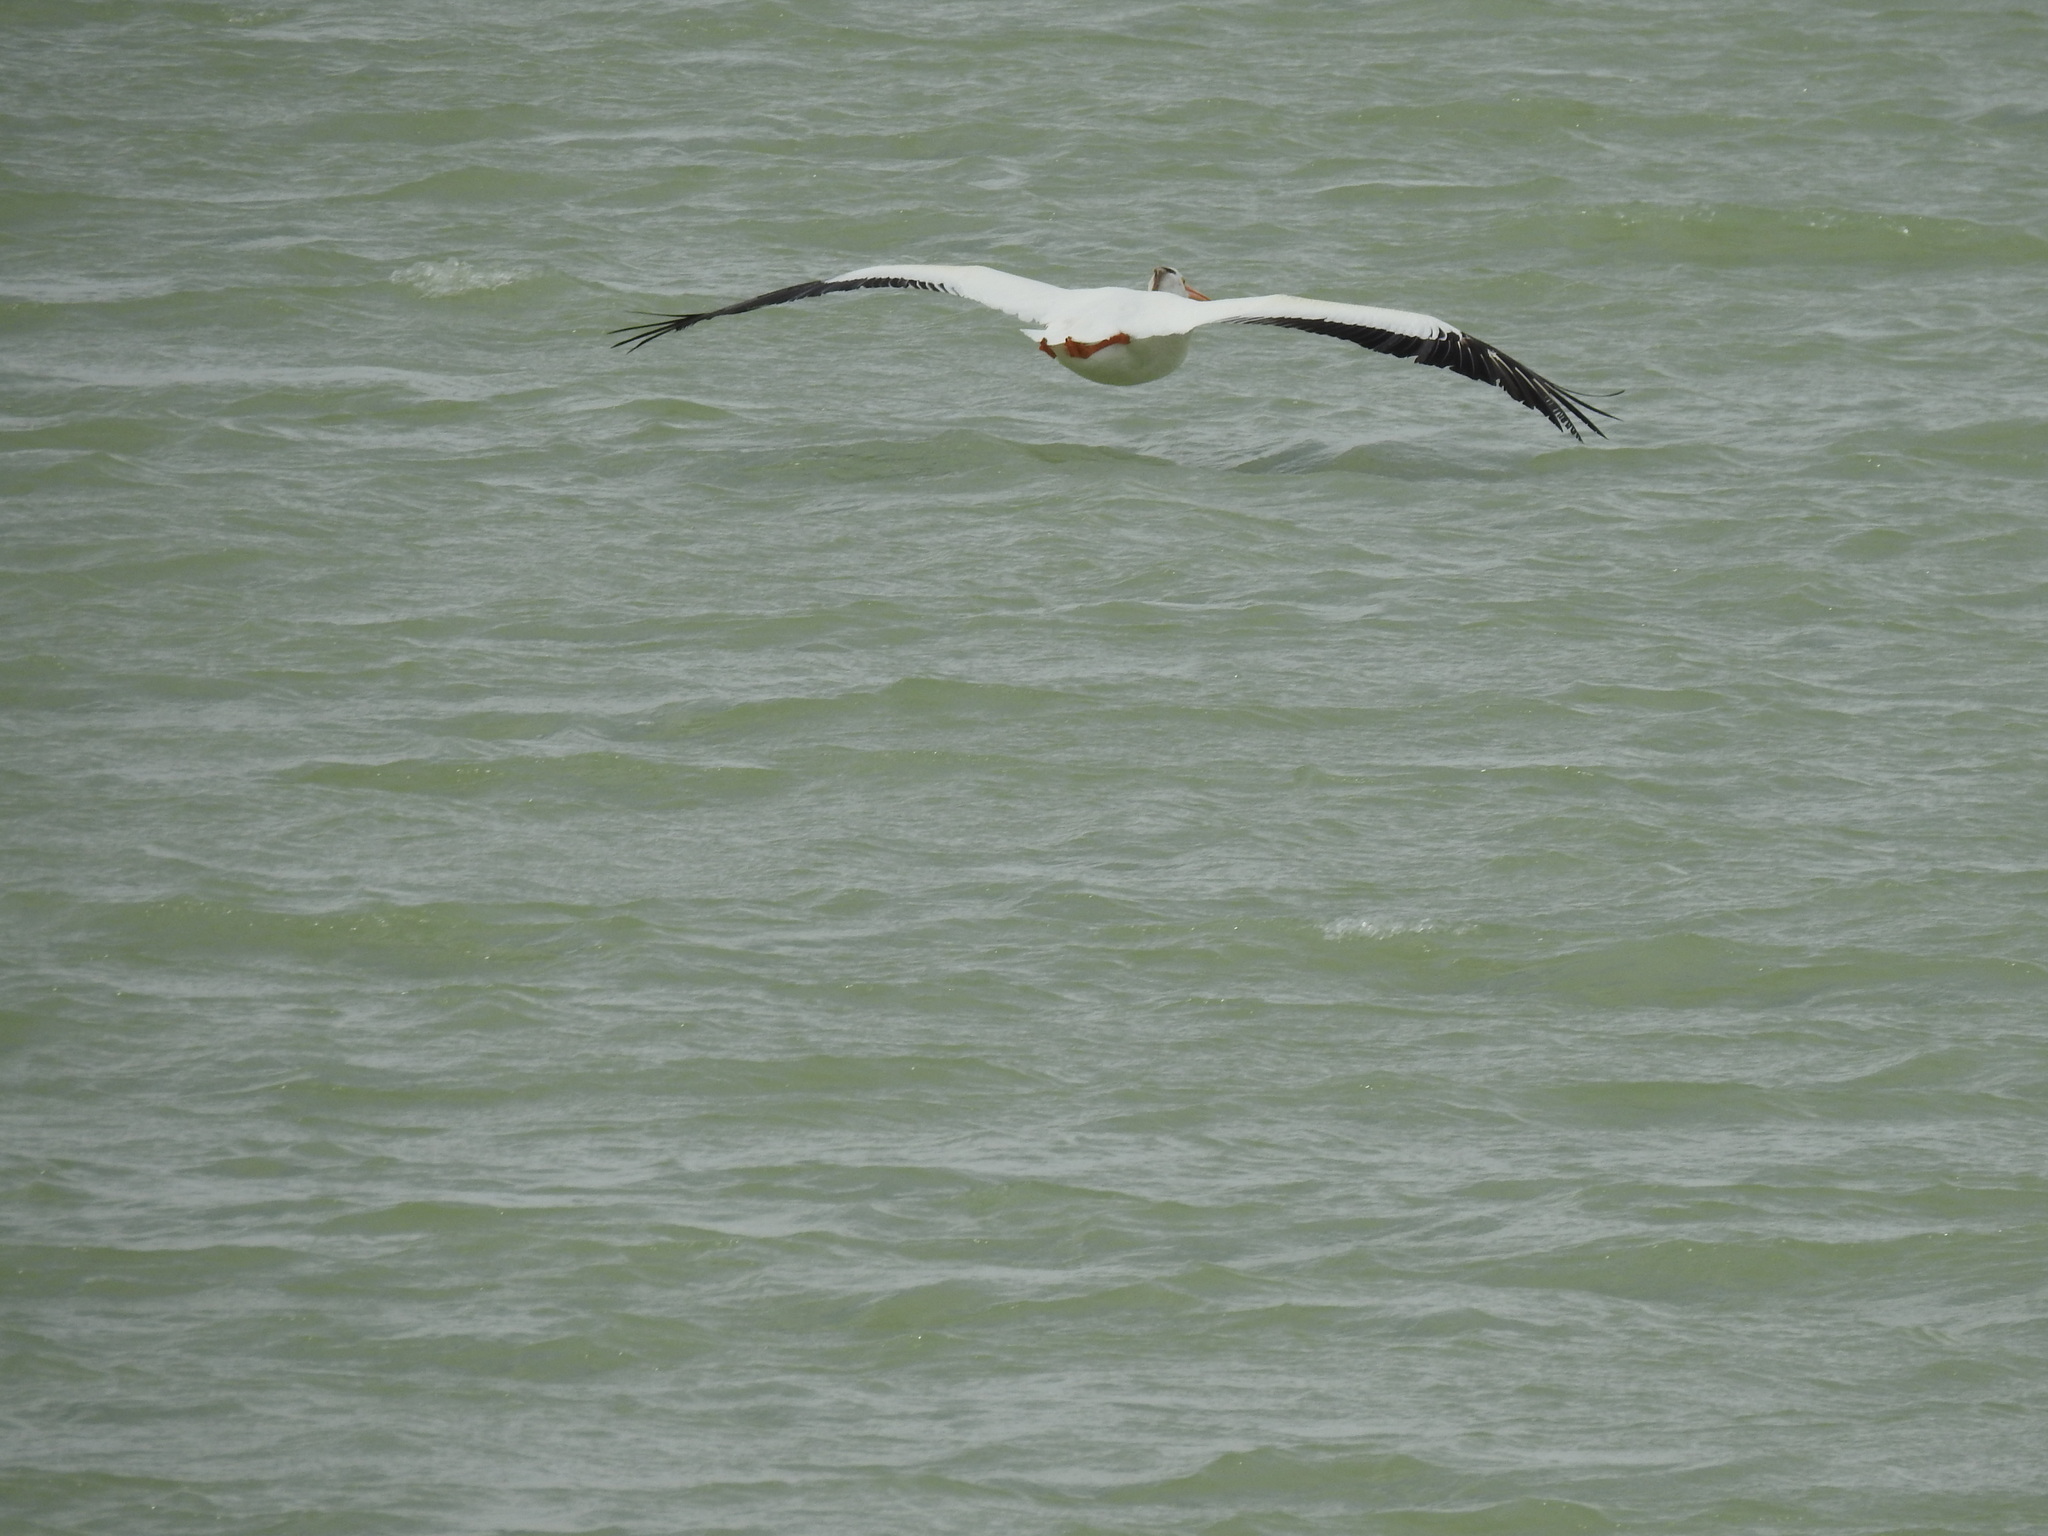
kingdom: Animalia
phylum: Chordata
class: Aves
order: Pelecaniformes
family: Pelecanidae
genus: Pelecanus
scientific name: Pelecanus erythrorhynchos
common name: American white pelican
